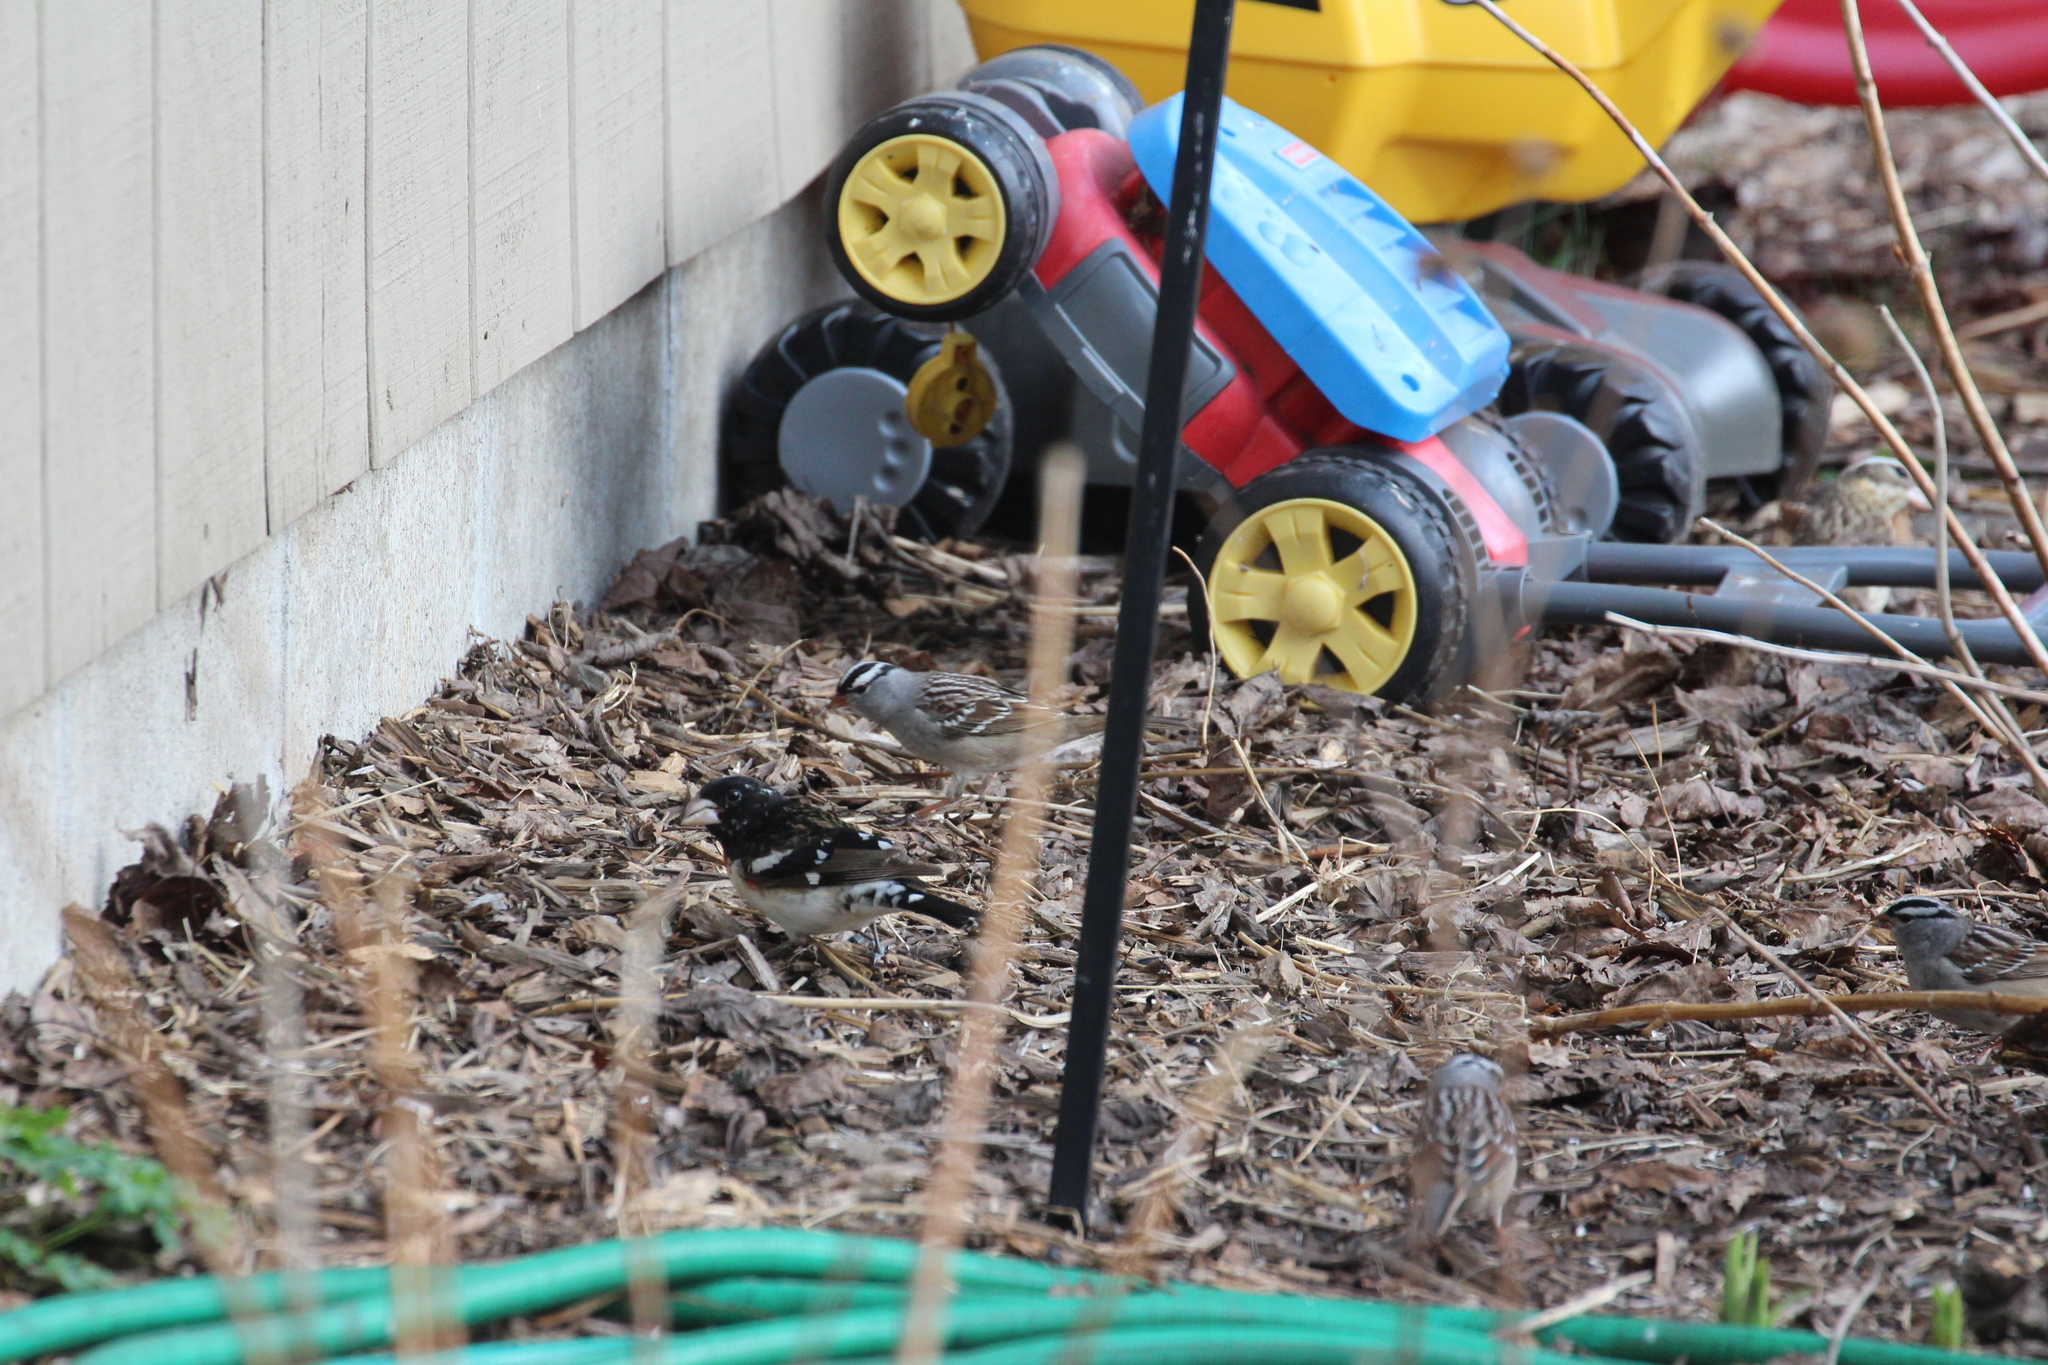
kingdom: Animalia
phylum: Chordata
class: Aves
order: Passeriformes
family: Cardinalidae
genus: Pheucticus
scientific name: Pheucticus ludovicianus
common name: Rose-breasted grosbeak
